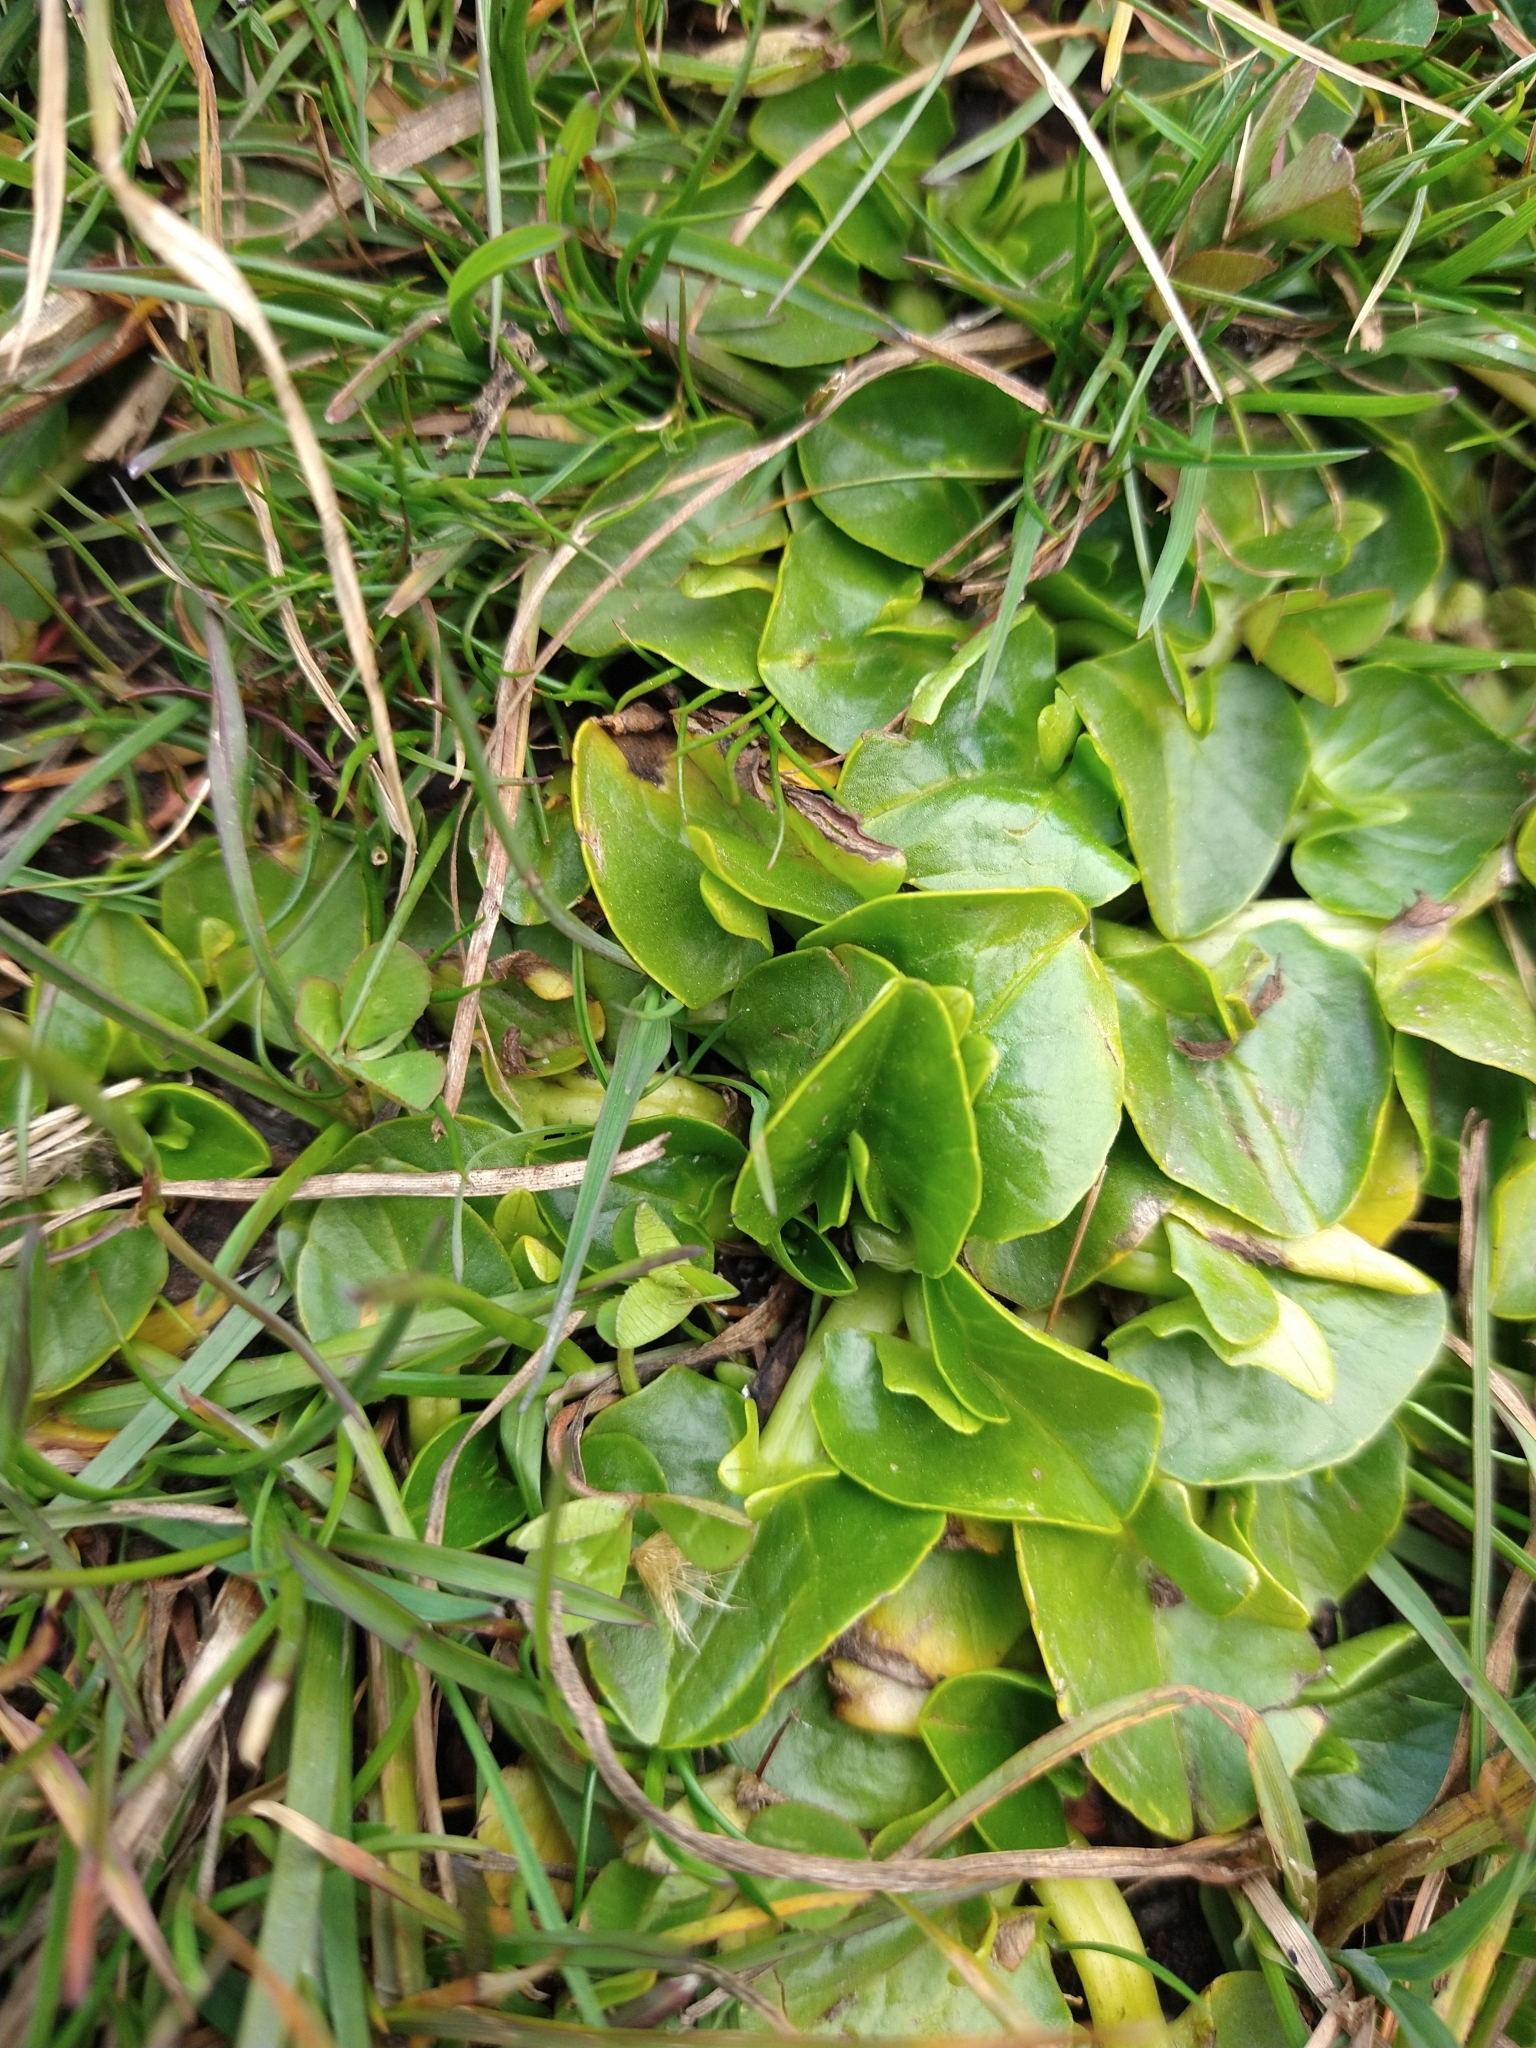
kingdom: Plantae
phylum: Tracheophyta
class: Magnoliopsida
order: Ranunculales
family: Ranunculaceae
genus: Caltha
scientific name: Caltha sagittata
